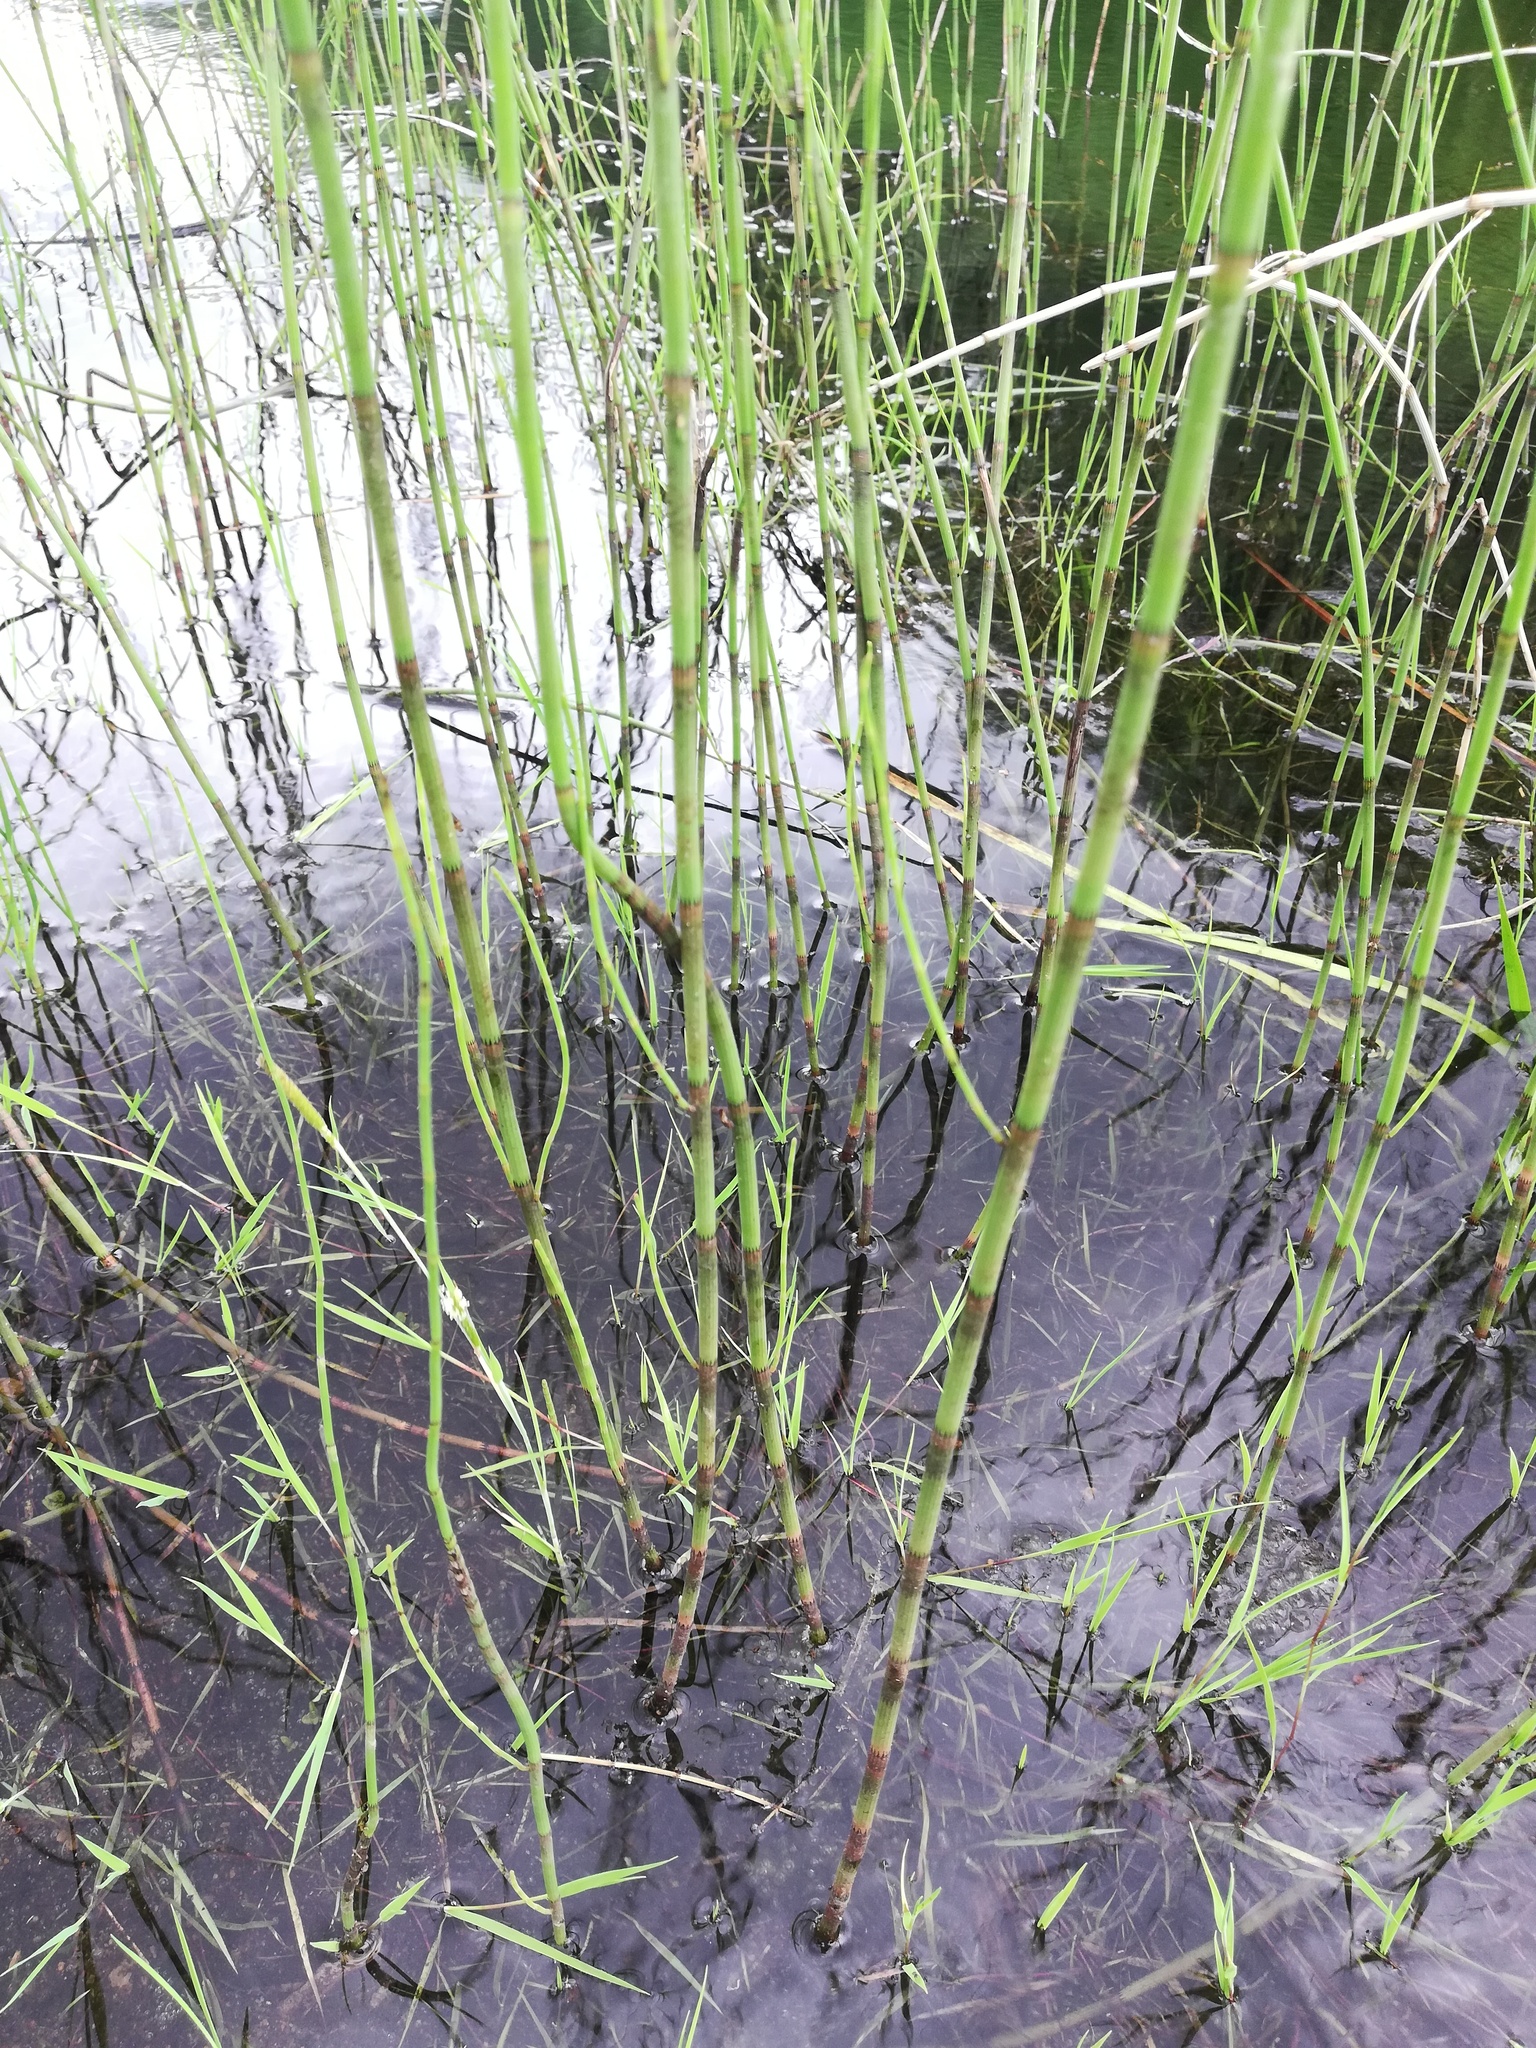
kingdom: Plantae
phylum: Tracheophyta
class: Polypodiopsida
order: Equisetales
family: Equisetaceae
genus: Equisetum
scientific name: Equisetum fluviatile
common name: Water horsetail
